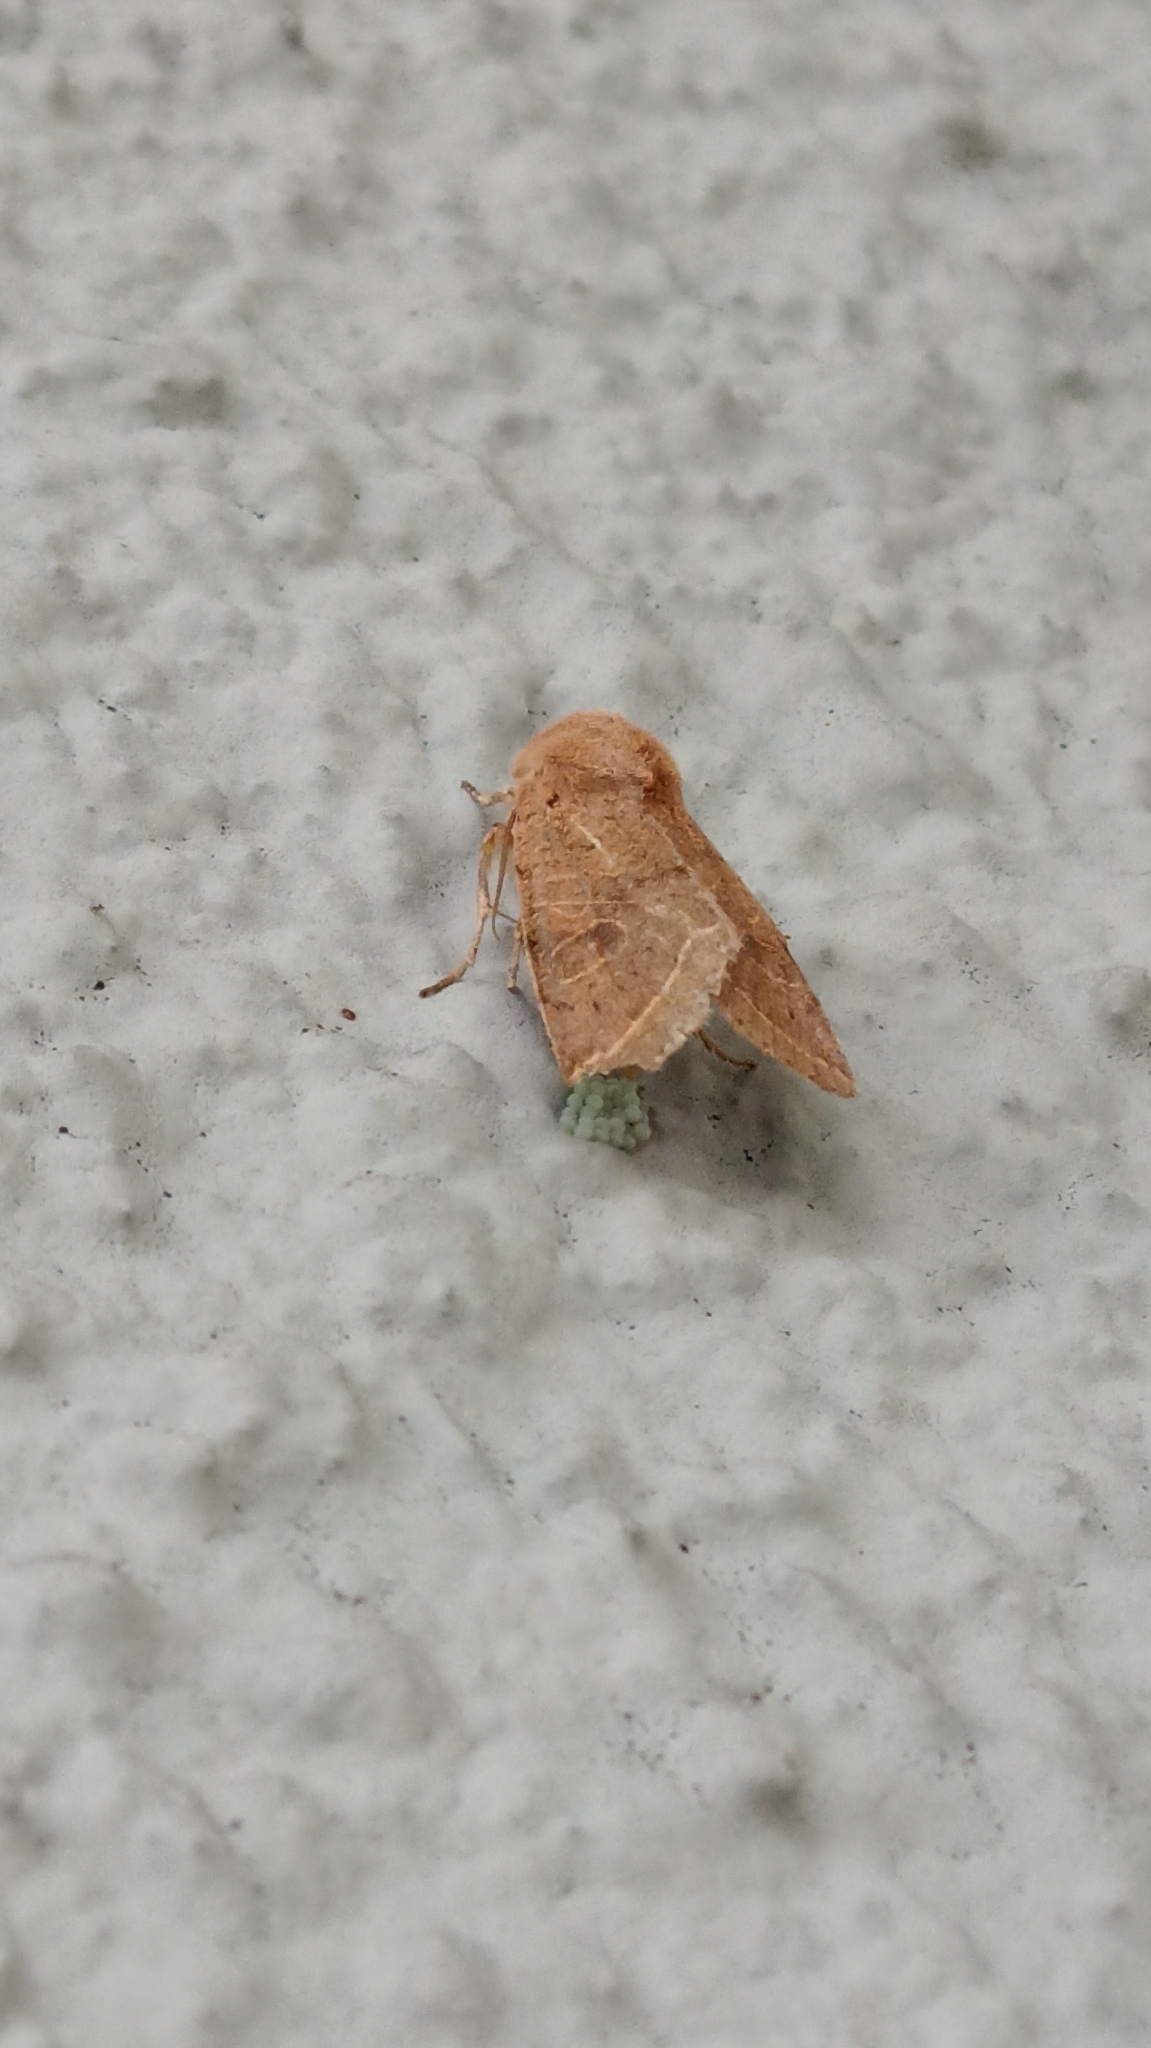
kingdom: Animalia
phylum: Arthropoda
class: Insecta
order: Lepidoptera
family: Noctuidae
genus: Orthosia
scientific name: Orthosia cerasi
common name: Common quaker
